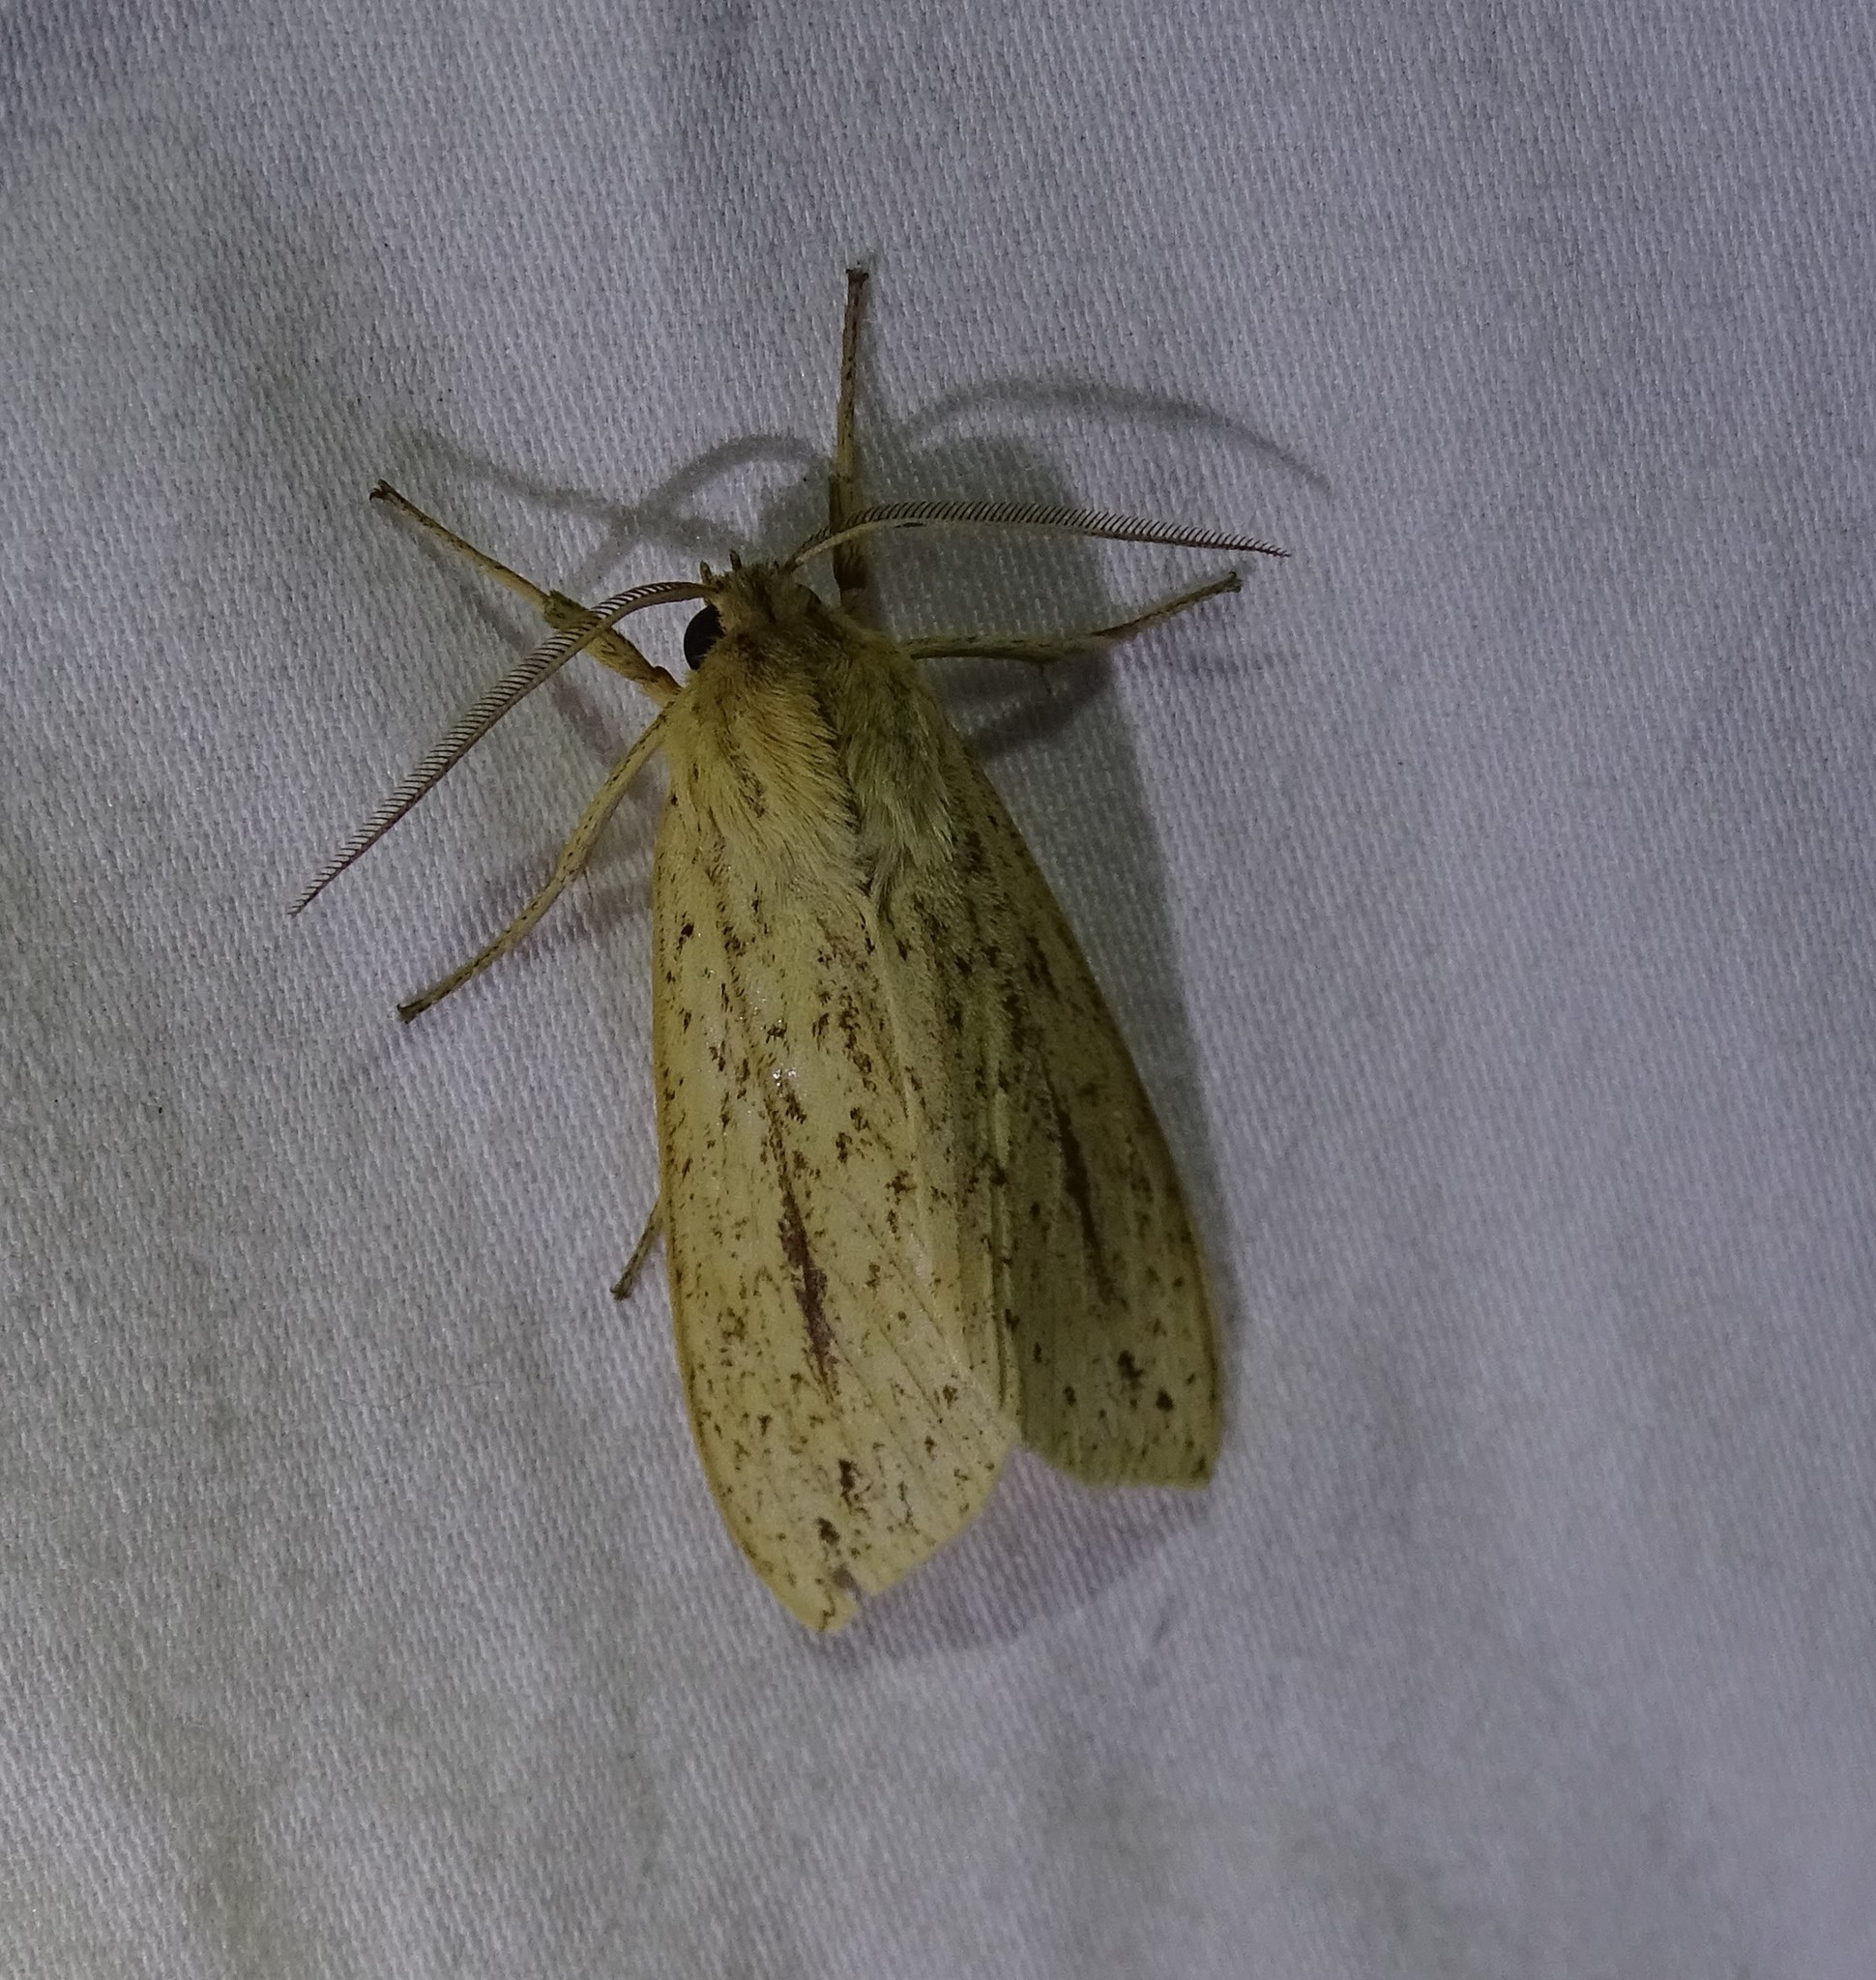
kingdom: Animalia
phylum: Arthropoda
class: Insecta
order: Lepidoptera
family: Erebidae
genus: Leucanopsis
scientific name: Leucanopsis longa
